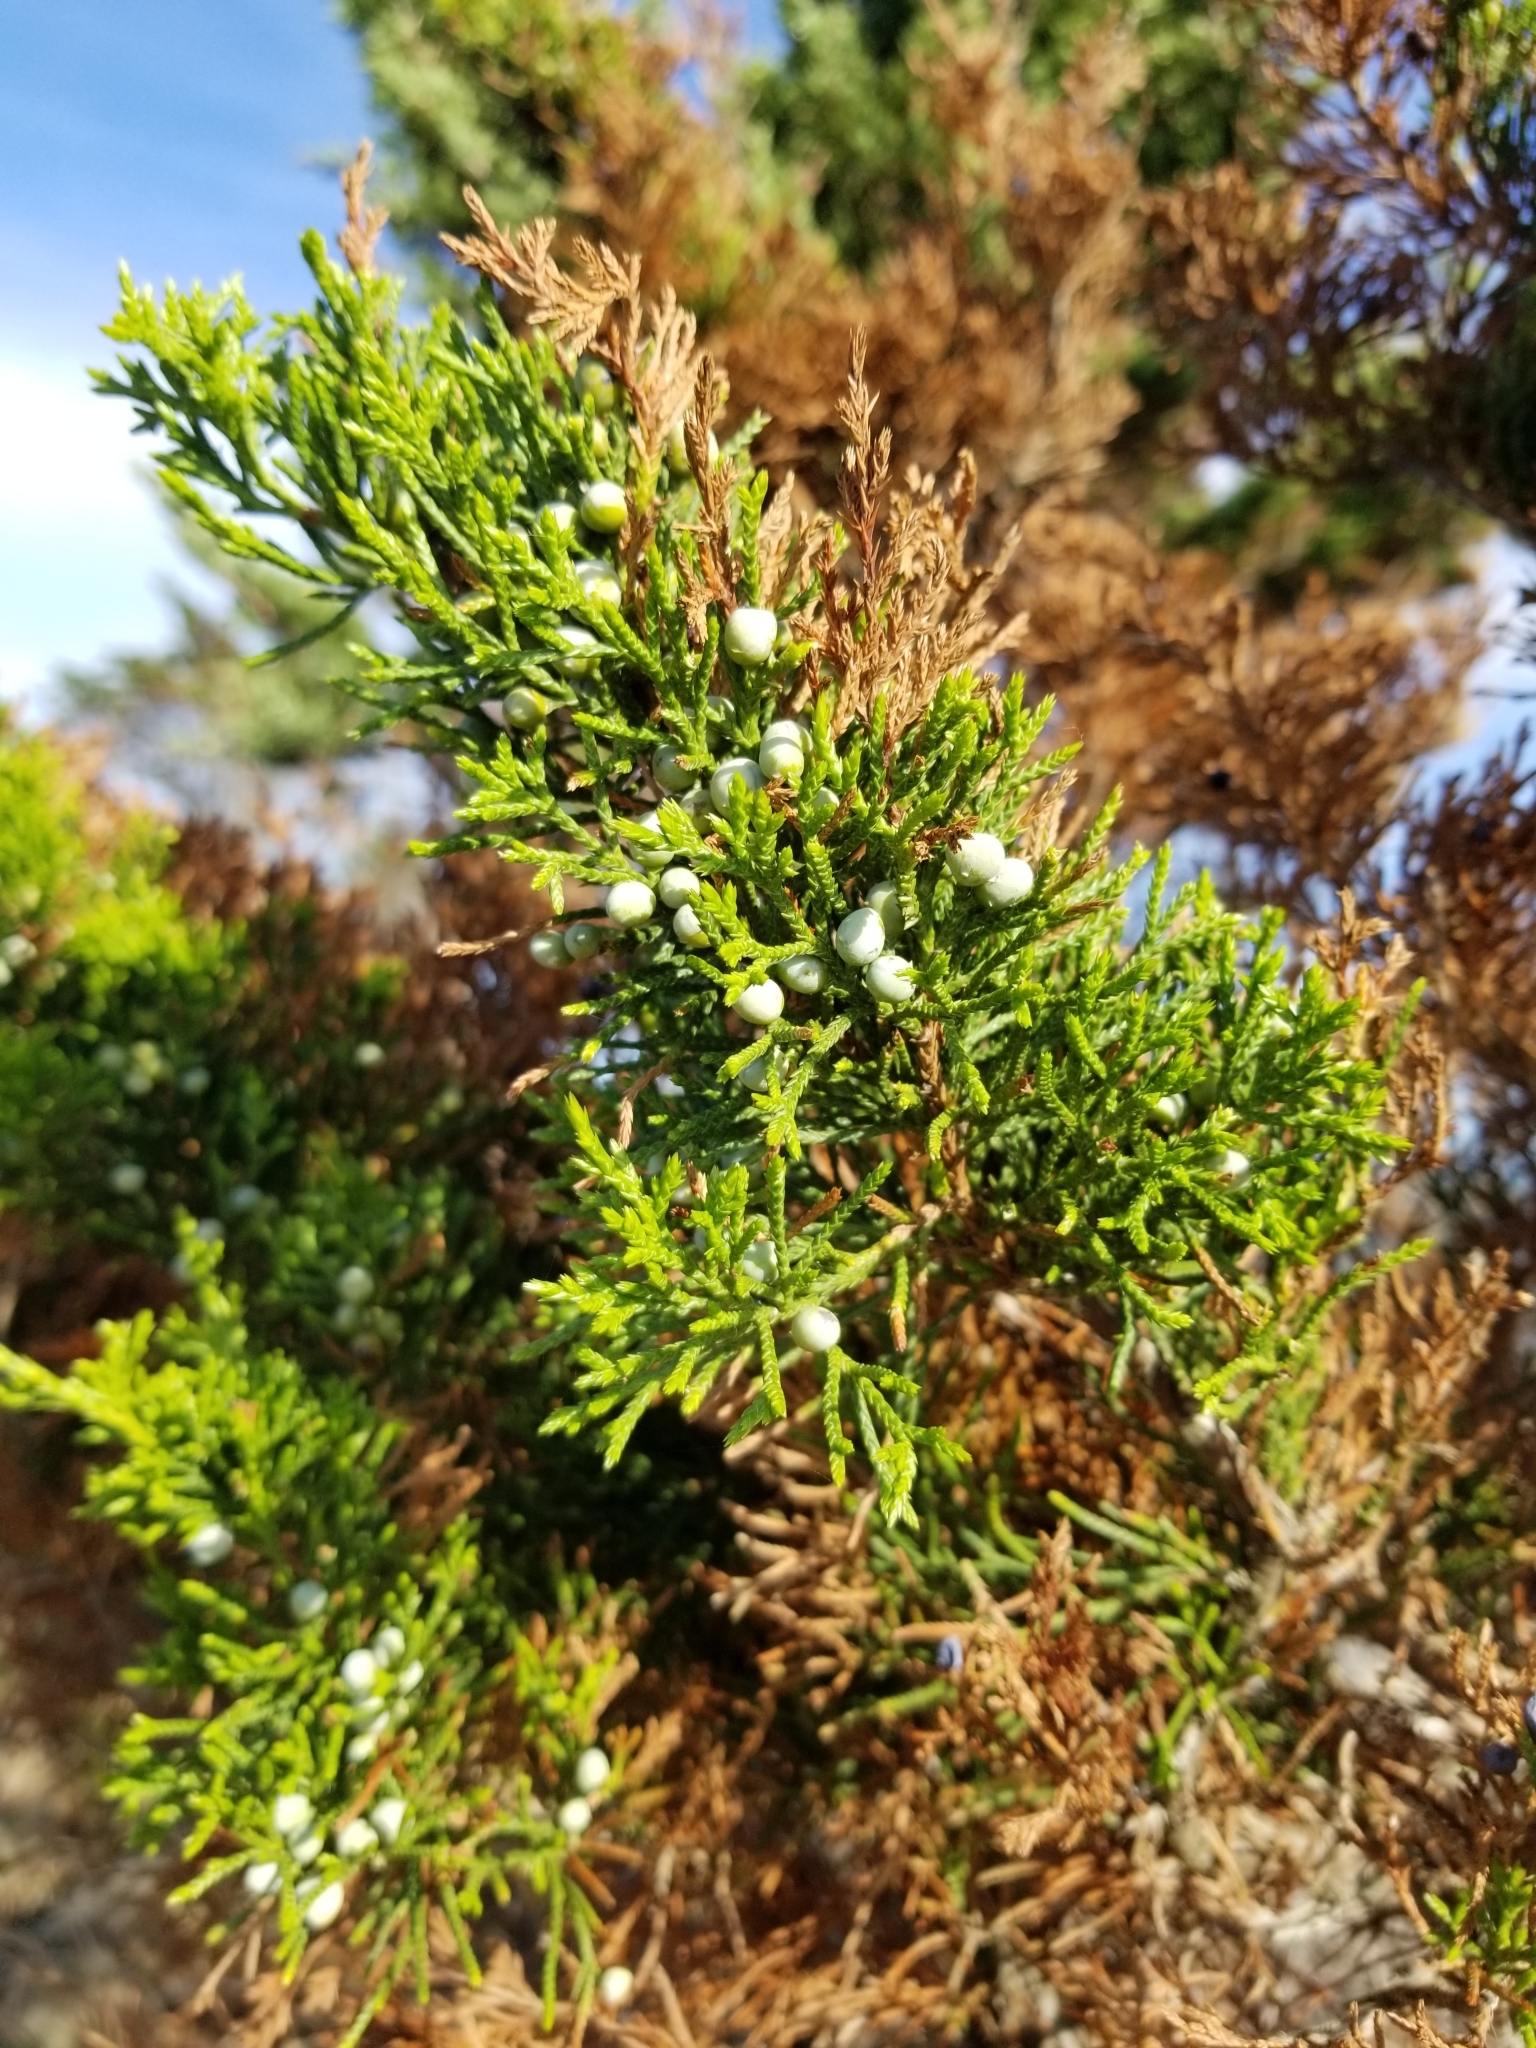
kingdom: Plantae
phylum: Tracheophyta
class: Pinopsida
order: Pinales
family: Cupressaceae
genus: Juniperus
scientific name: Juniperus virginiana
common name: Red juniper
